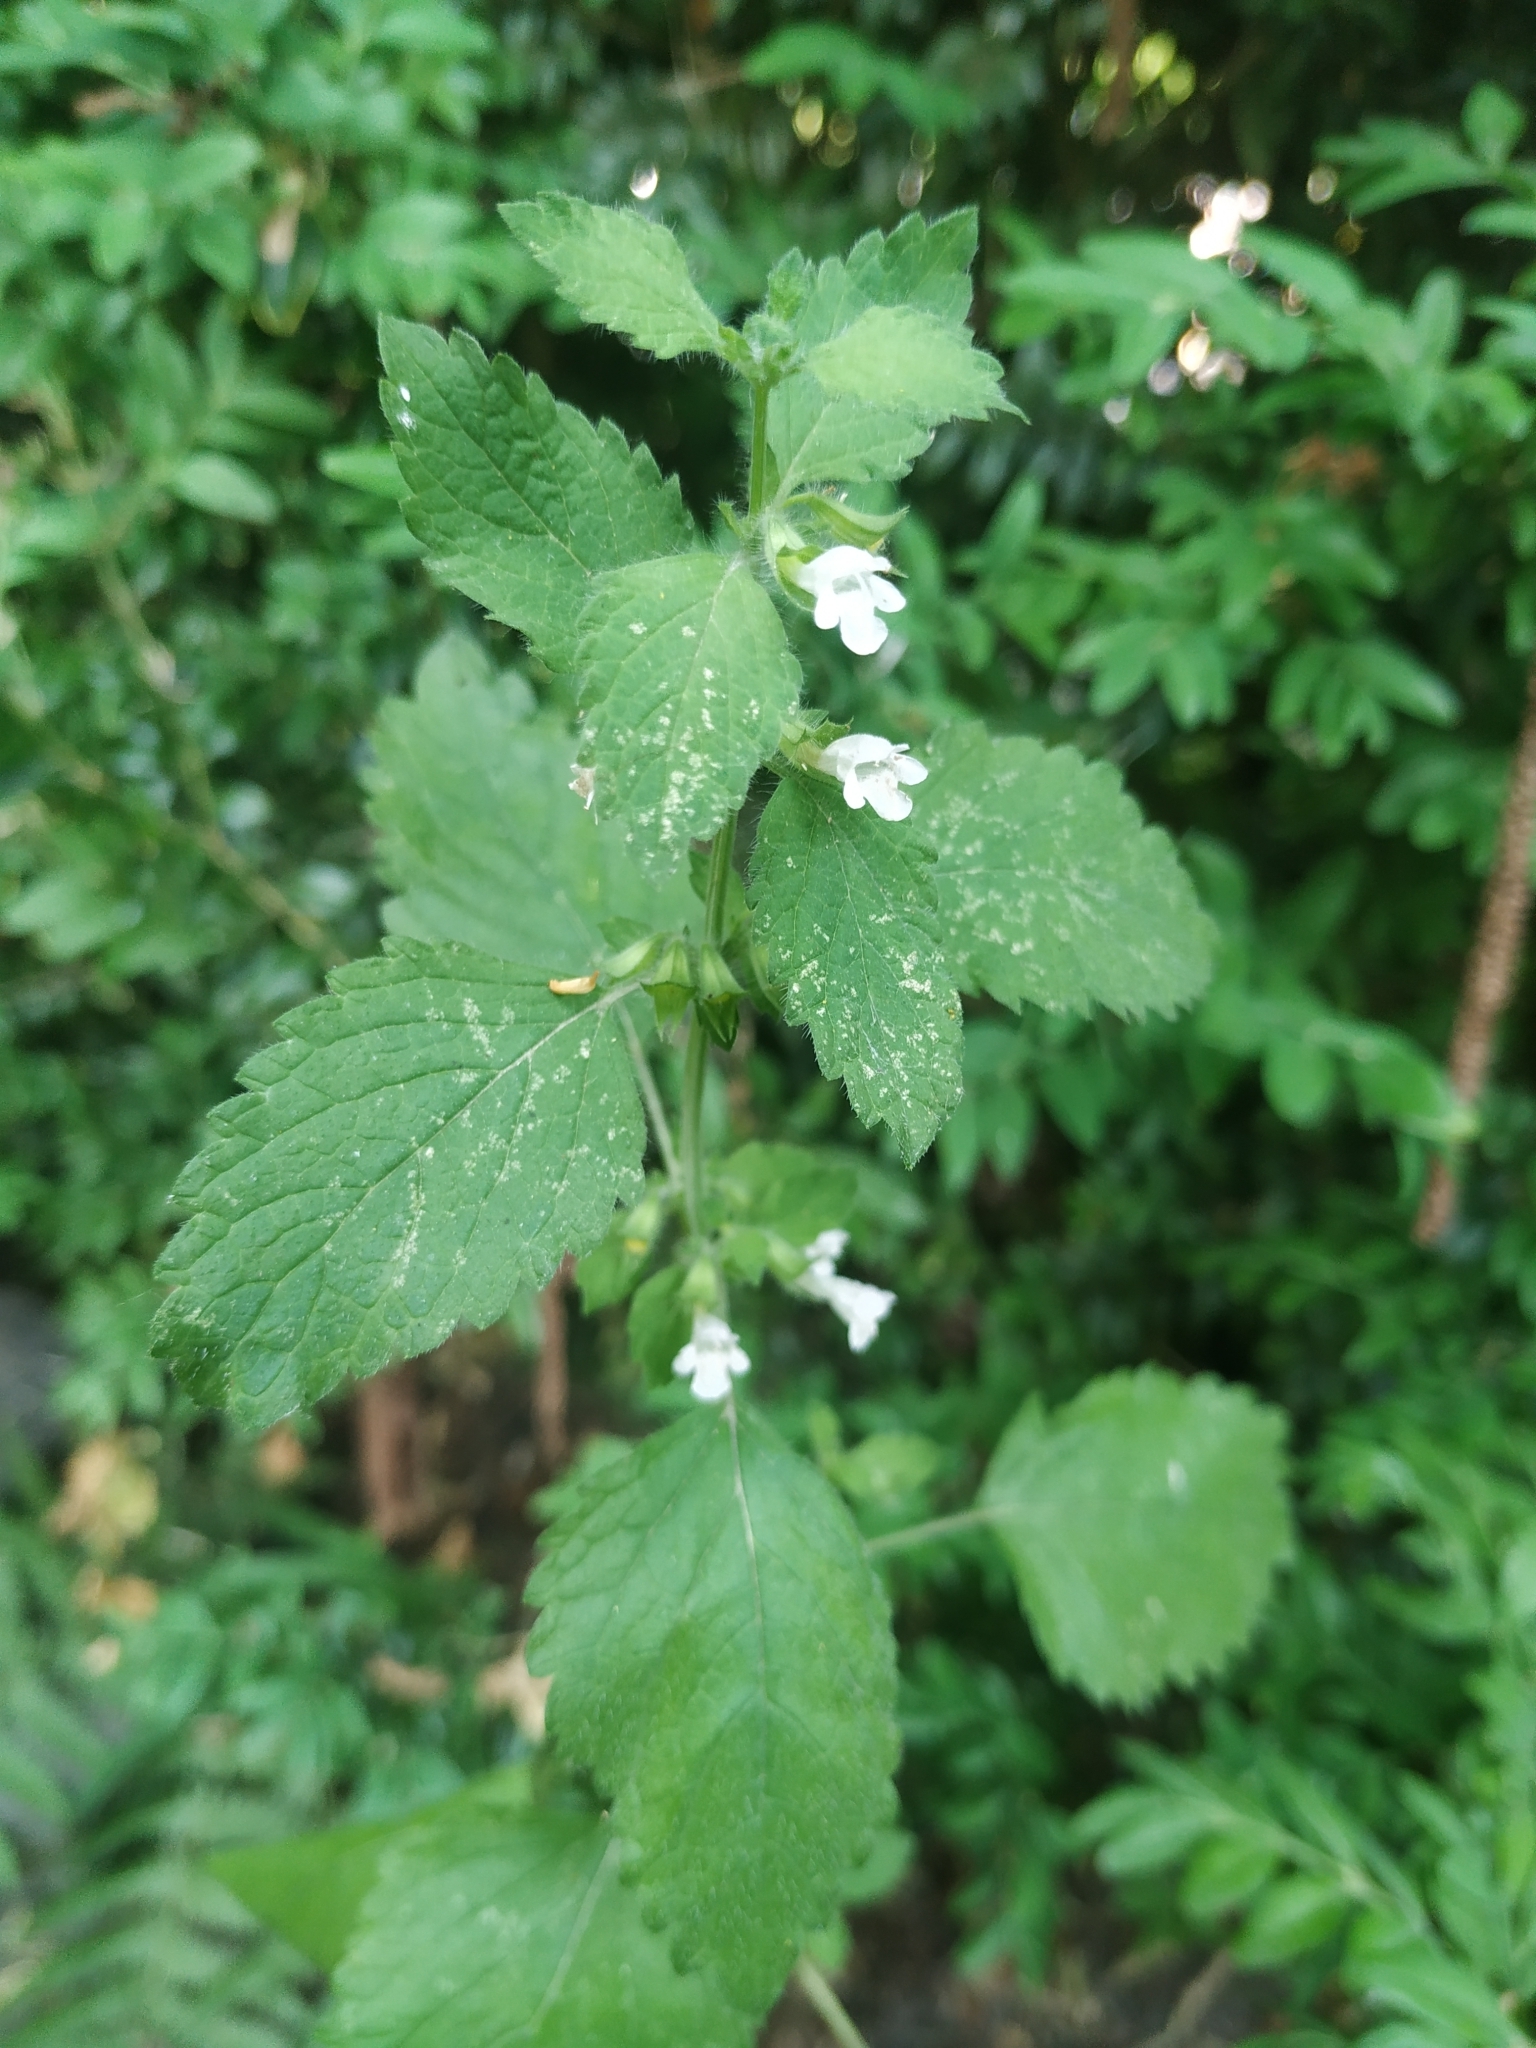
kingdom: Plantae
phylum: Tracheophyta
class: Magnoliopsida
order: Lamiales
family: Lamiaceae
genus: Melissa
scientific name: Melissa officinalis
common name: Balm
